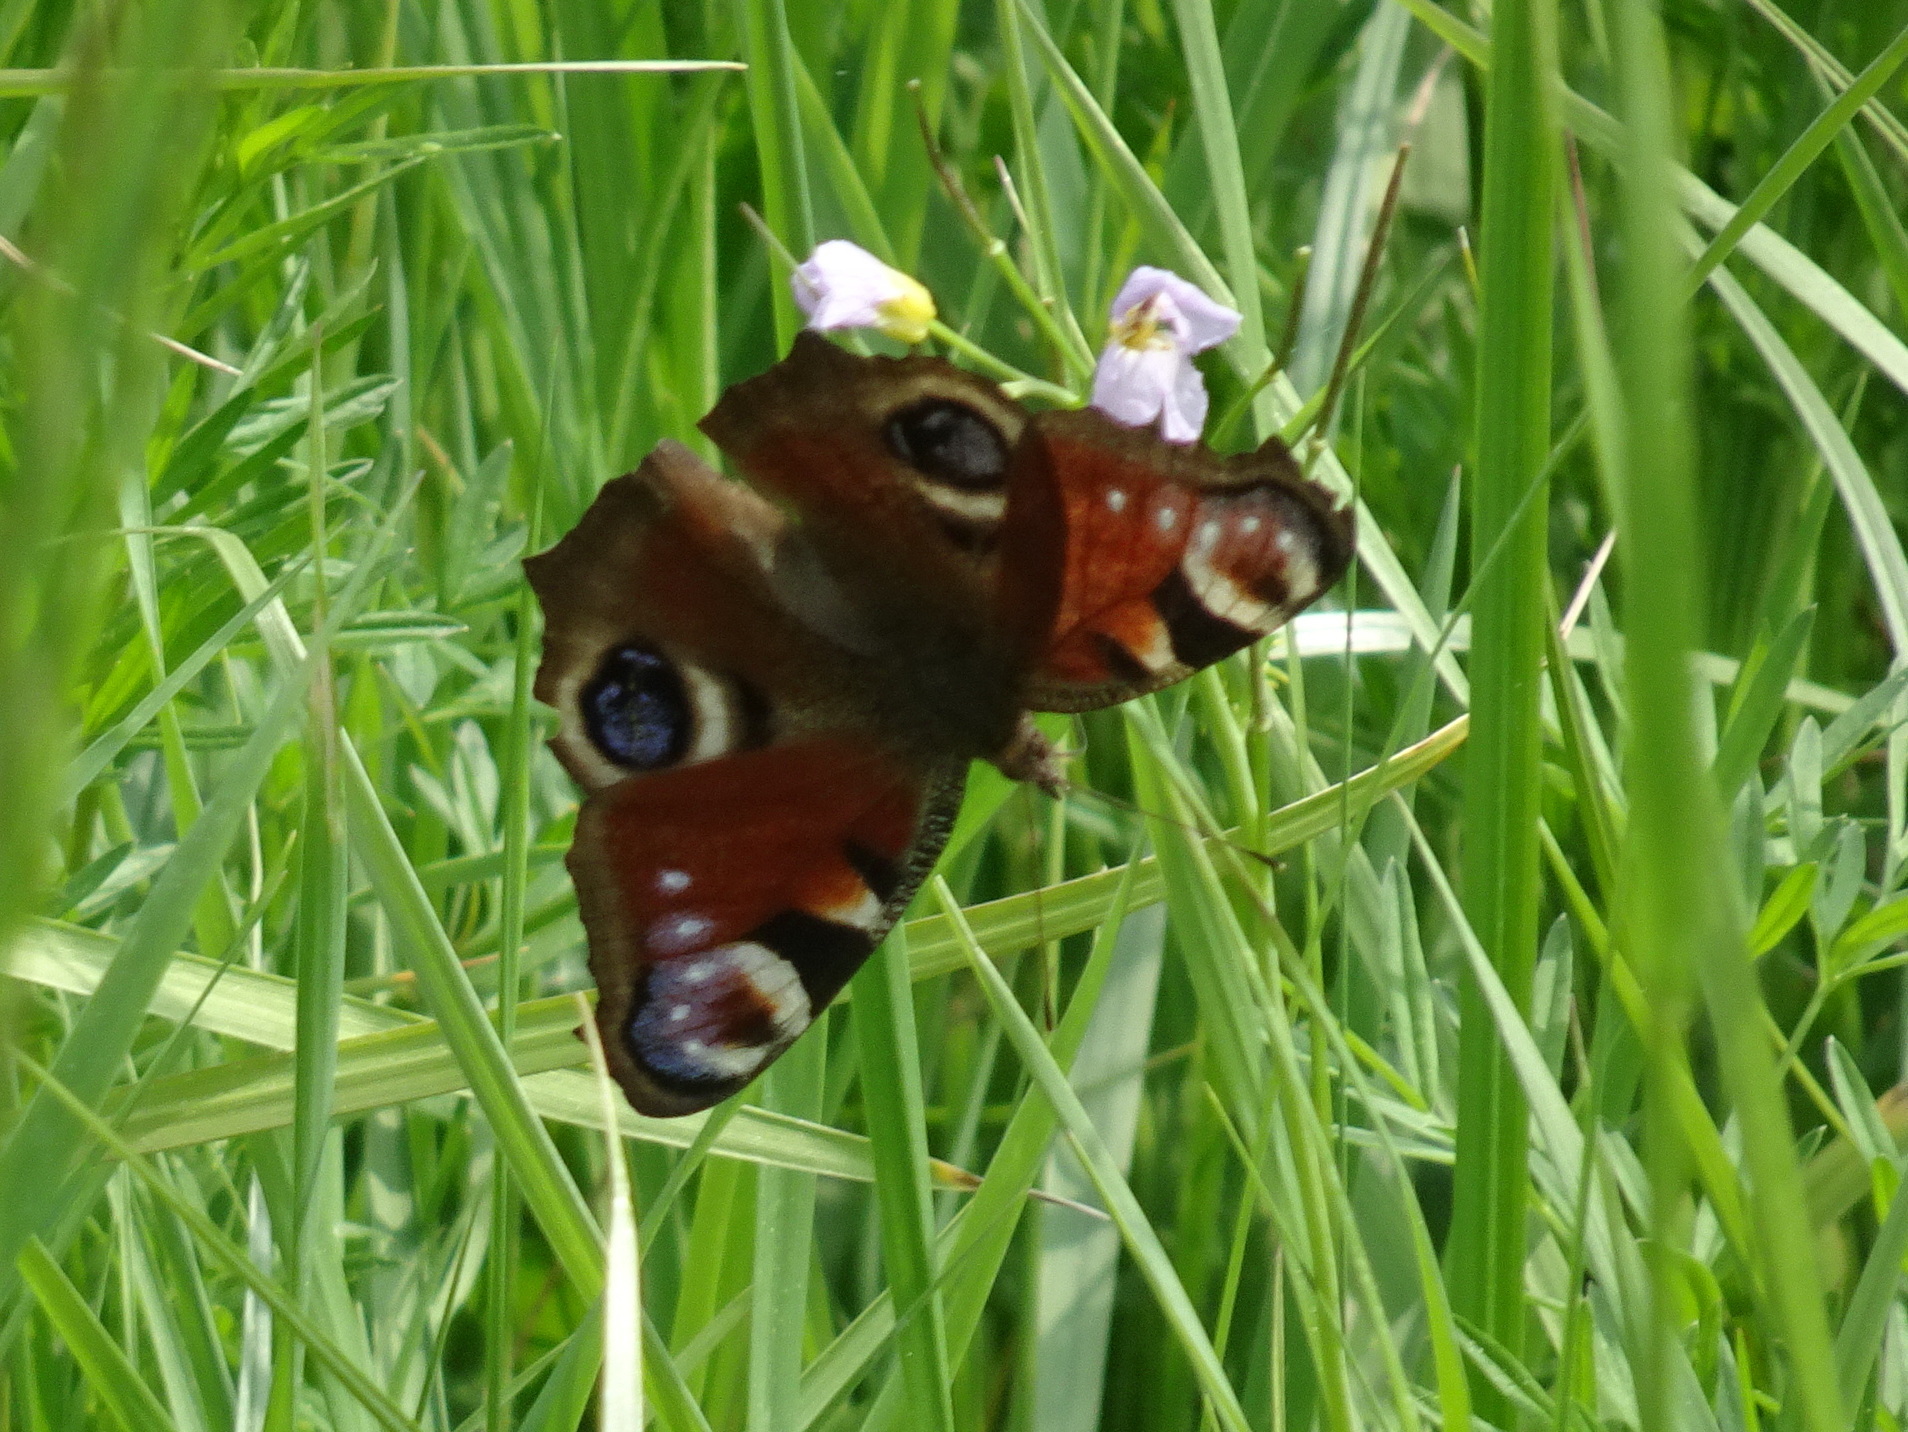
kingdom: Animalia
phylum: Arthropoda
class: Insecta
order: Lepidoptera
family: Nymphalidae
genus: Aglais
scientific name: Aglais io
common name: Peacock
